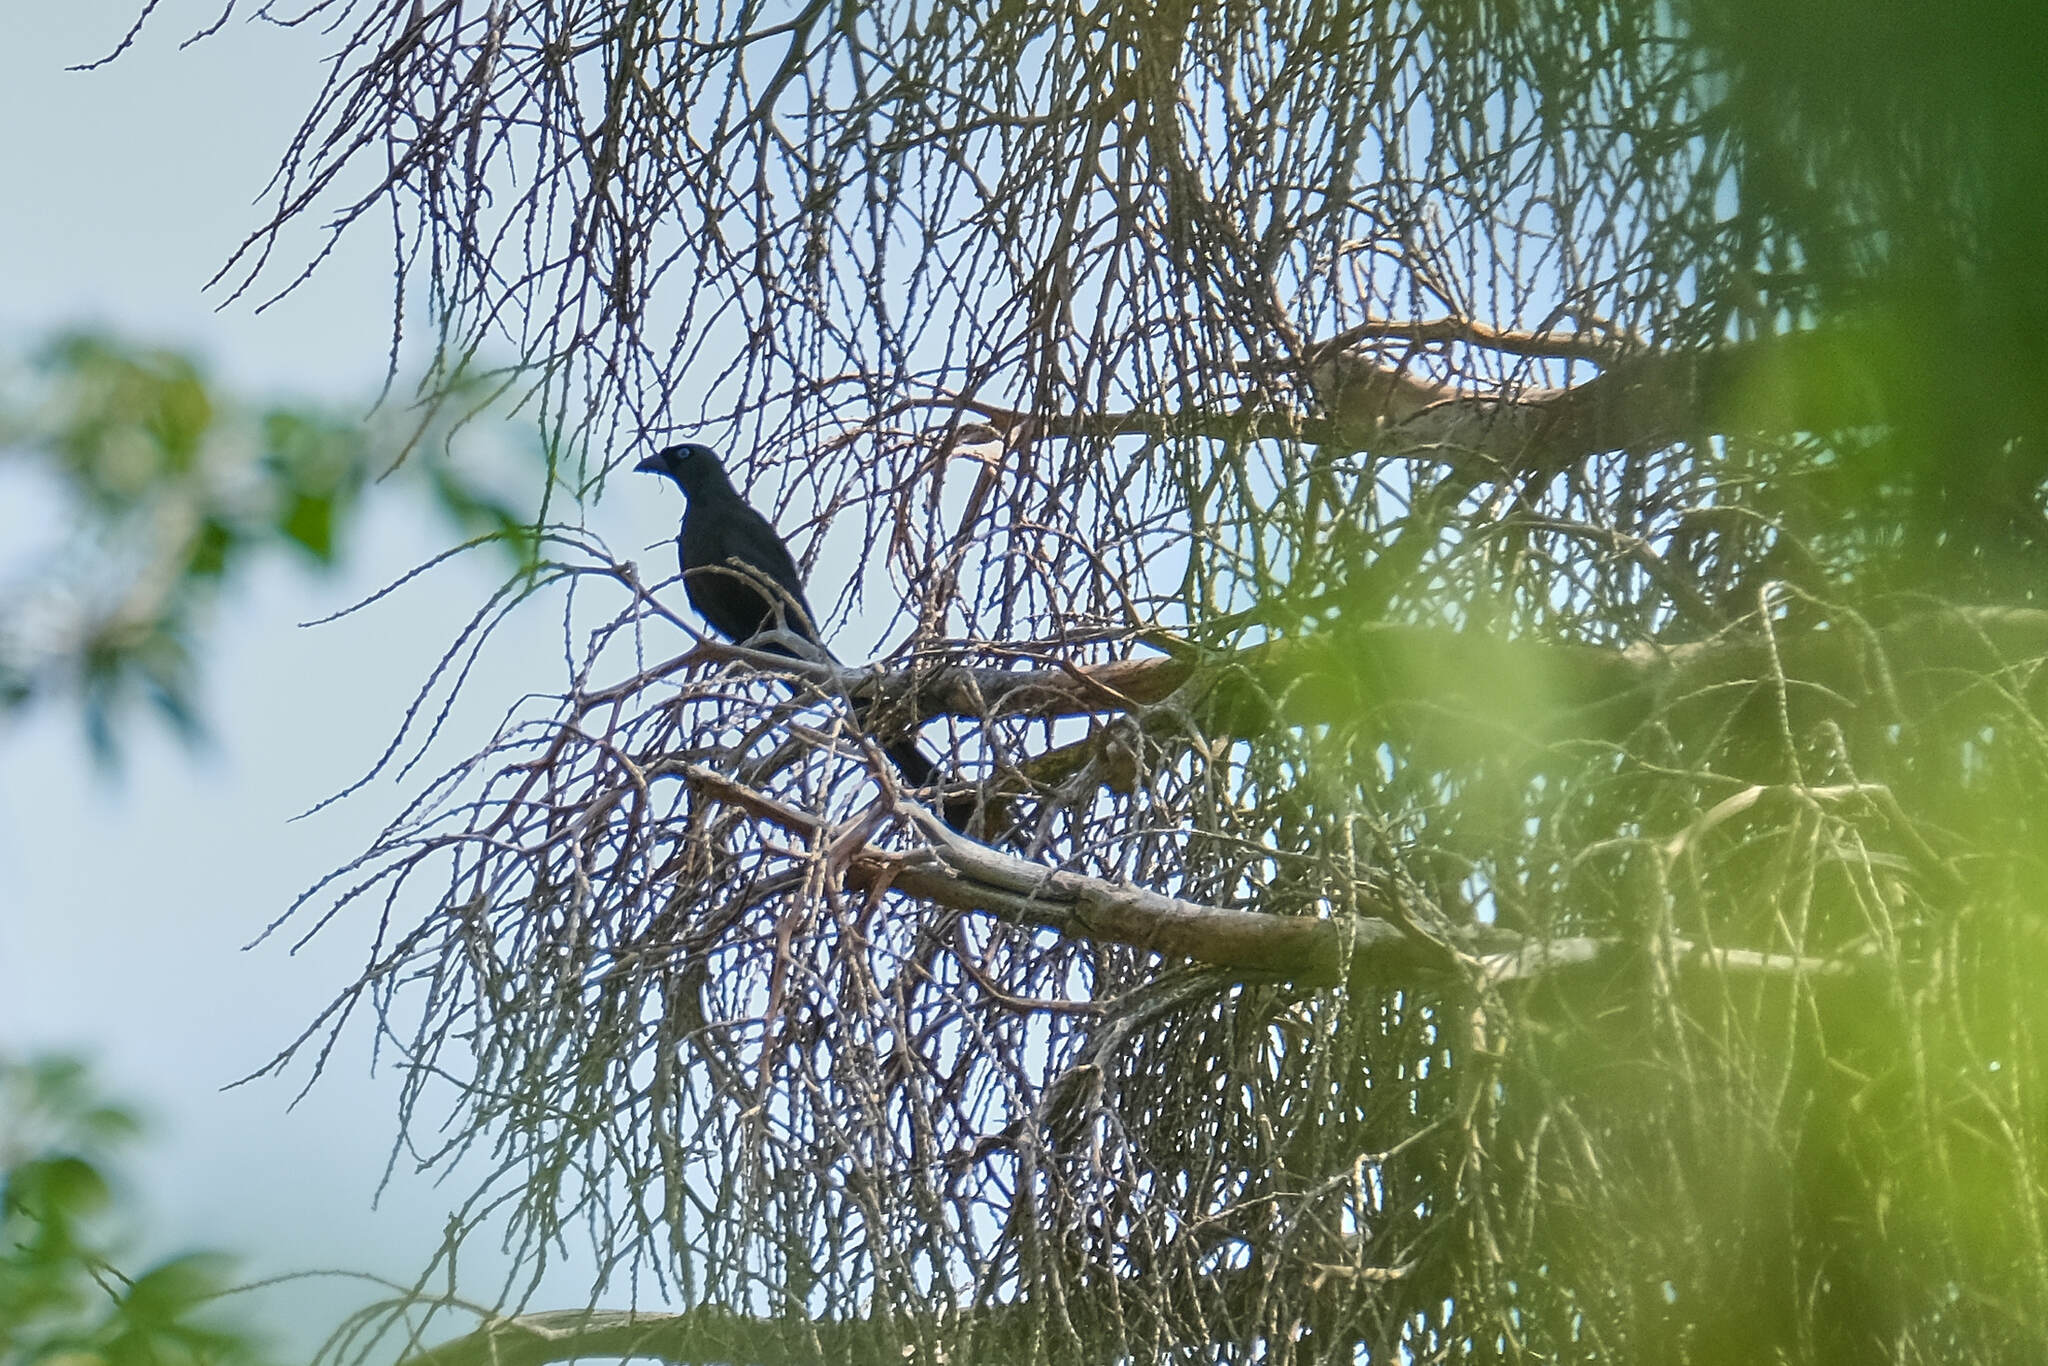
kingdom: Animalia
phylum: Chordata
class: Aves
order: Passeriformes
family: Corvidae
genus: Crypsirina
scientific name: Crypsirina temia
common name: Racket-tailed treepie
